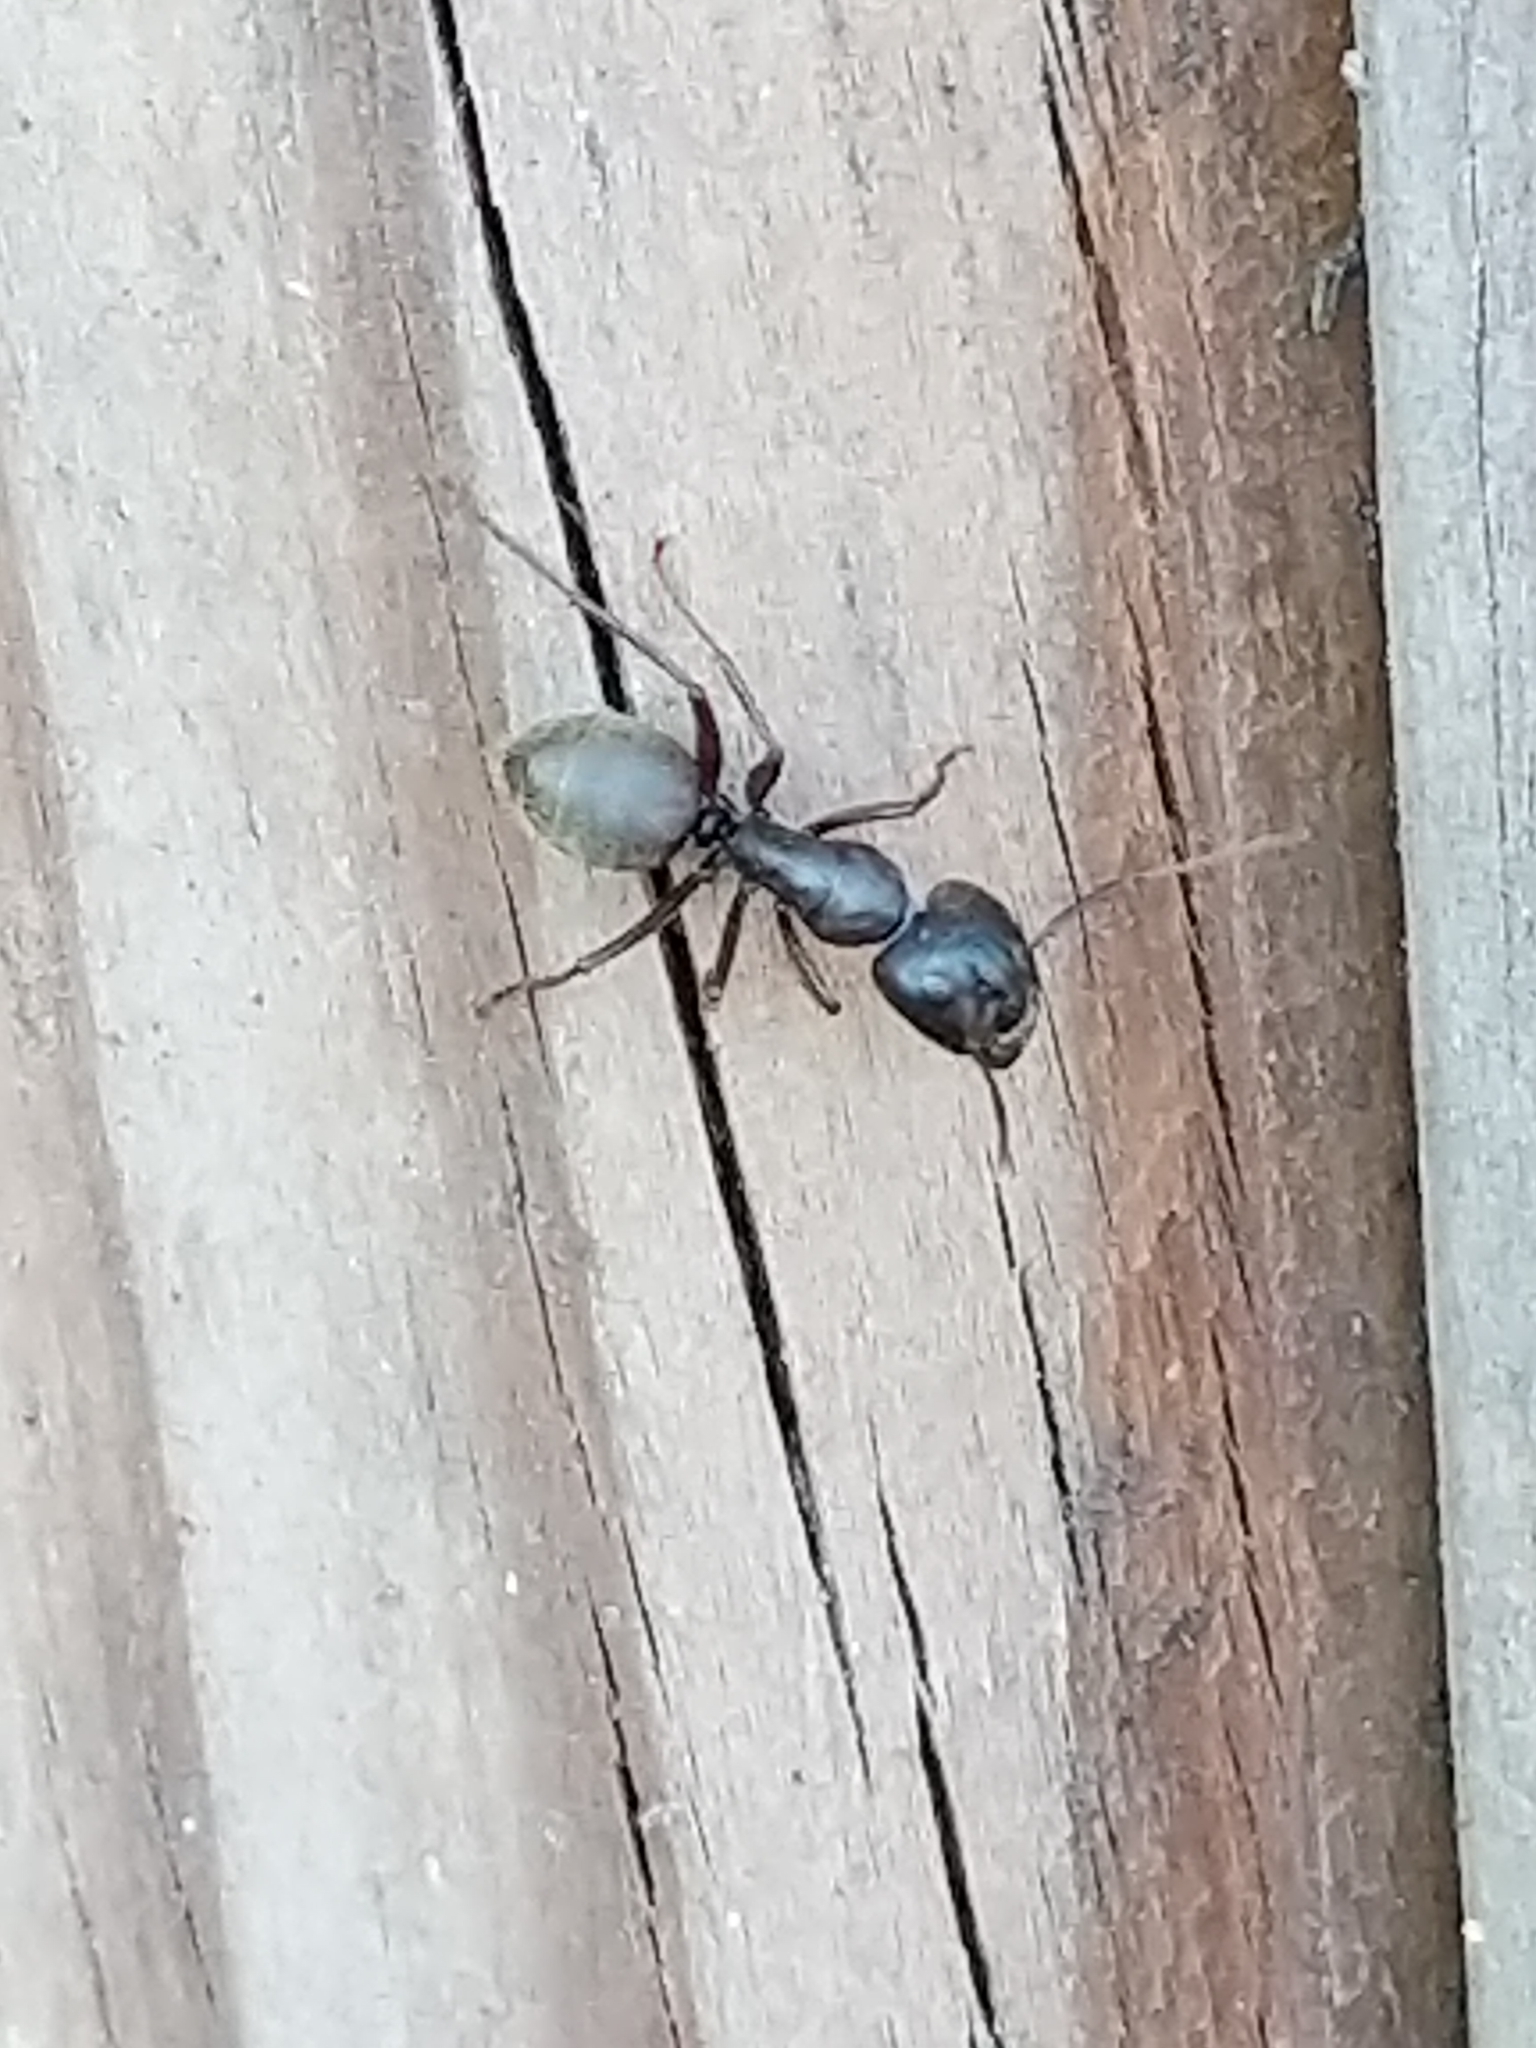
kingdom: Animalia
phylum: Arthropoda
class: Insecta
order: Hymenoptera
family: Formicidae
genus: Camponotus
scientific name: Camponotus pennsylvanicus
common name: Black carpenter ant
